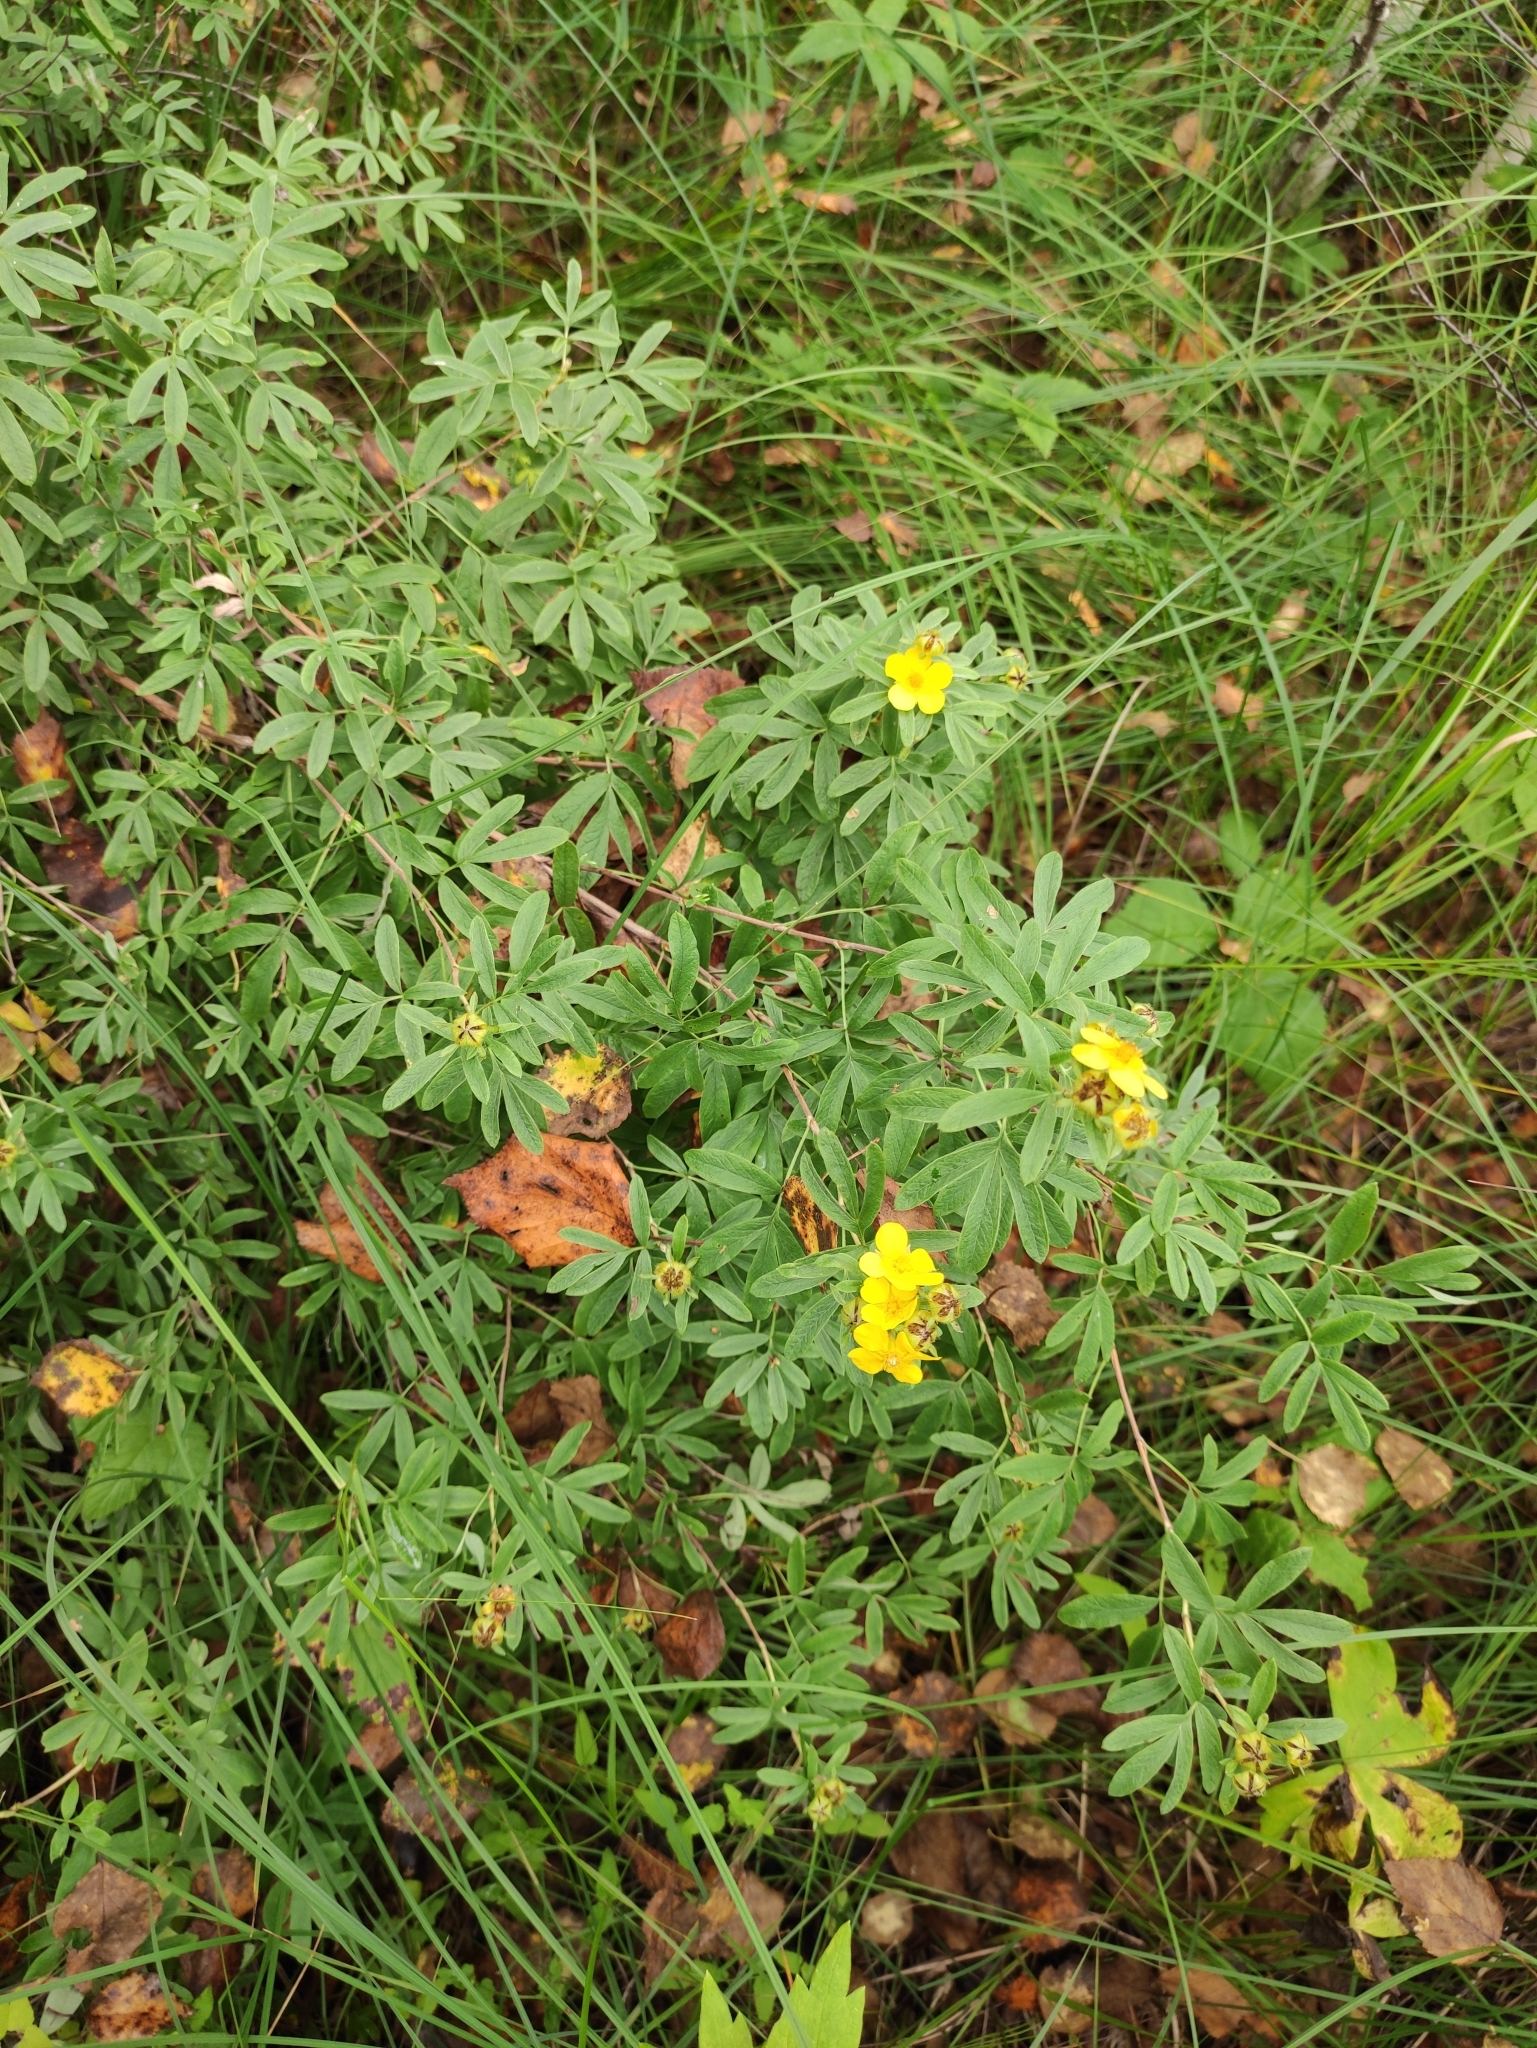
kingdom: Plantae
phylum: Tracheophyta
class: Magnoliopsida
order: Rosales
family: Rosaceae
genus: Dasiphora
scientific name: Dasiphora fruticosa
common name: Shrubby cinquefoil
